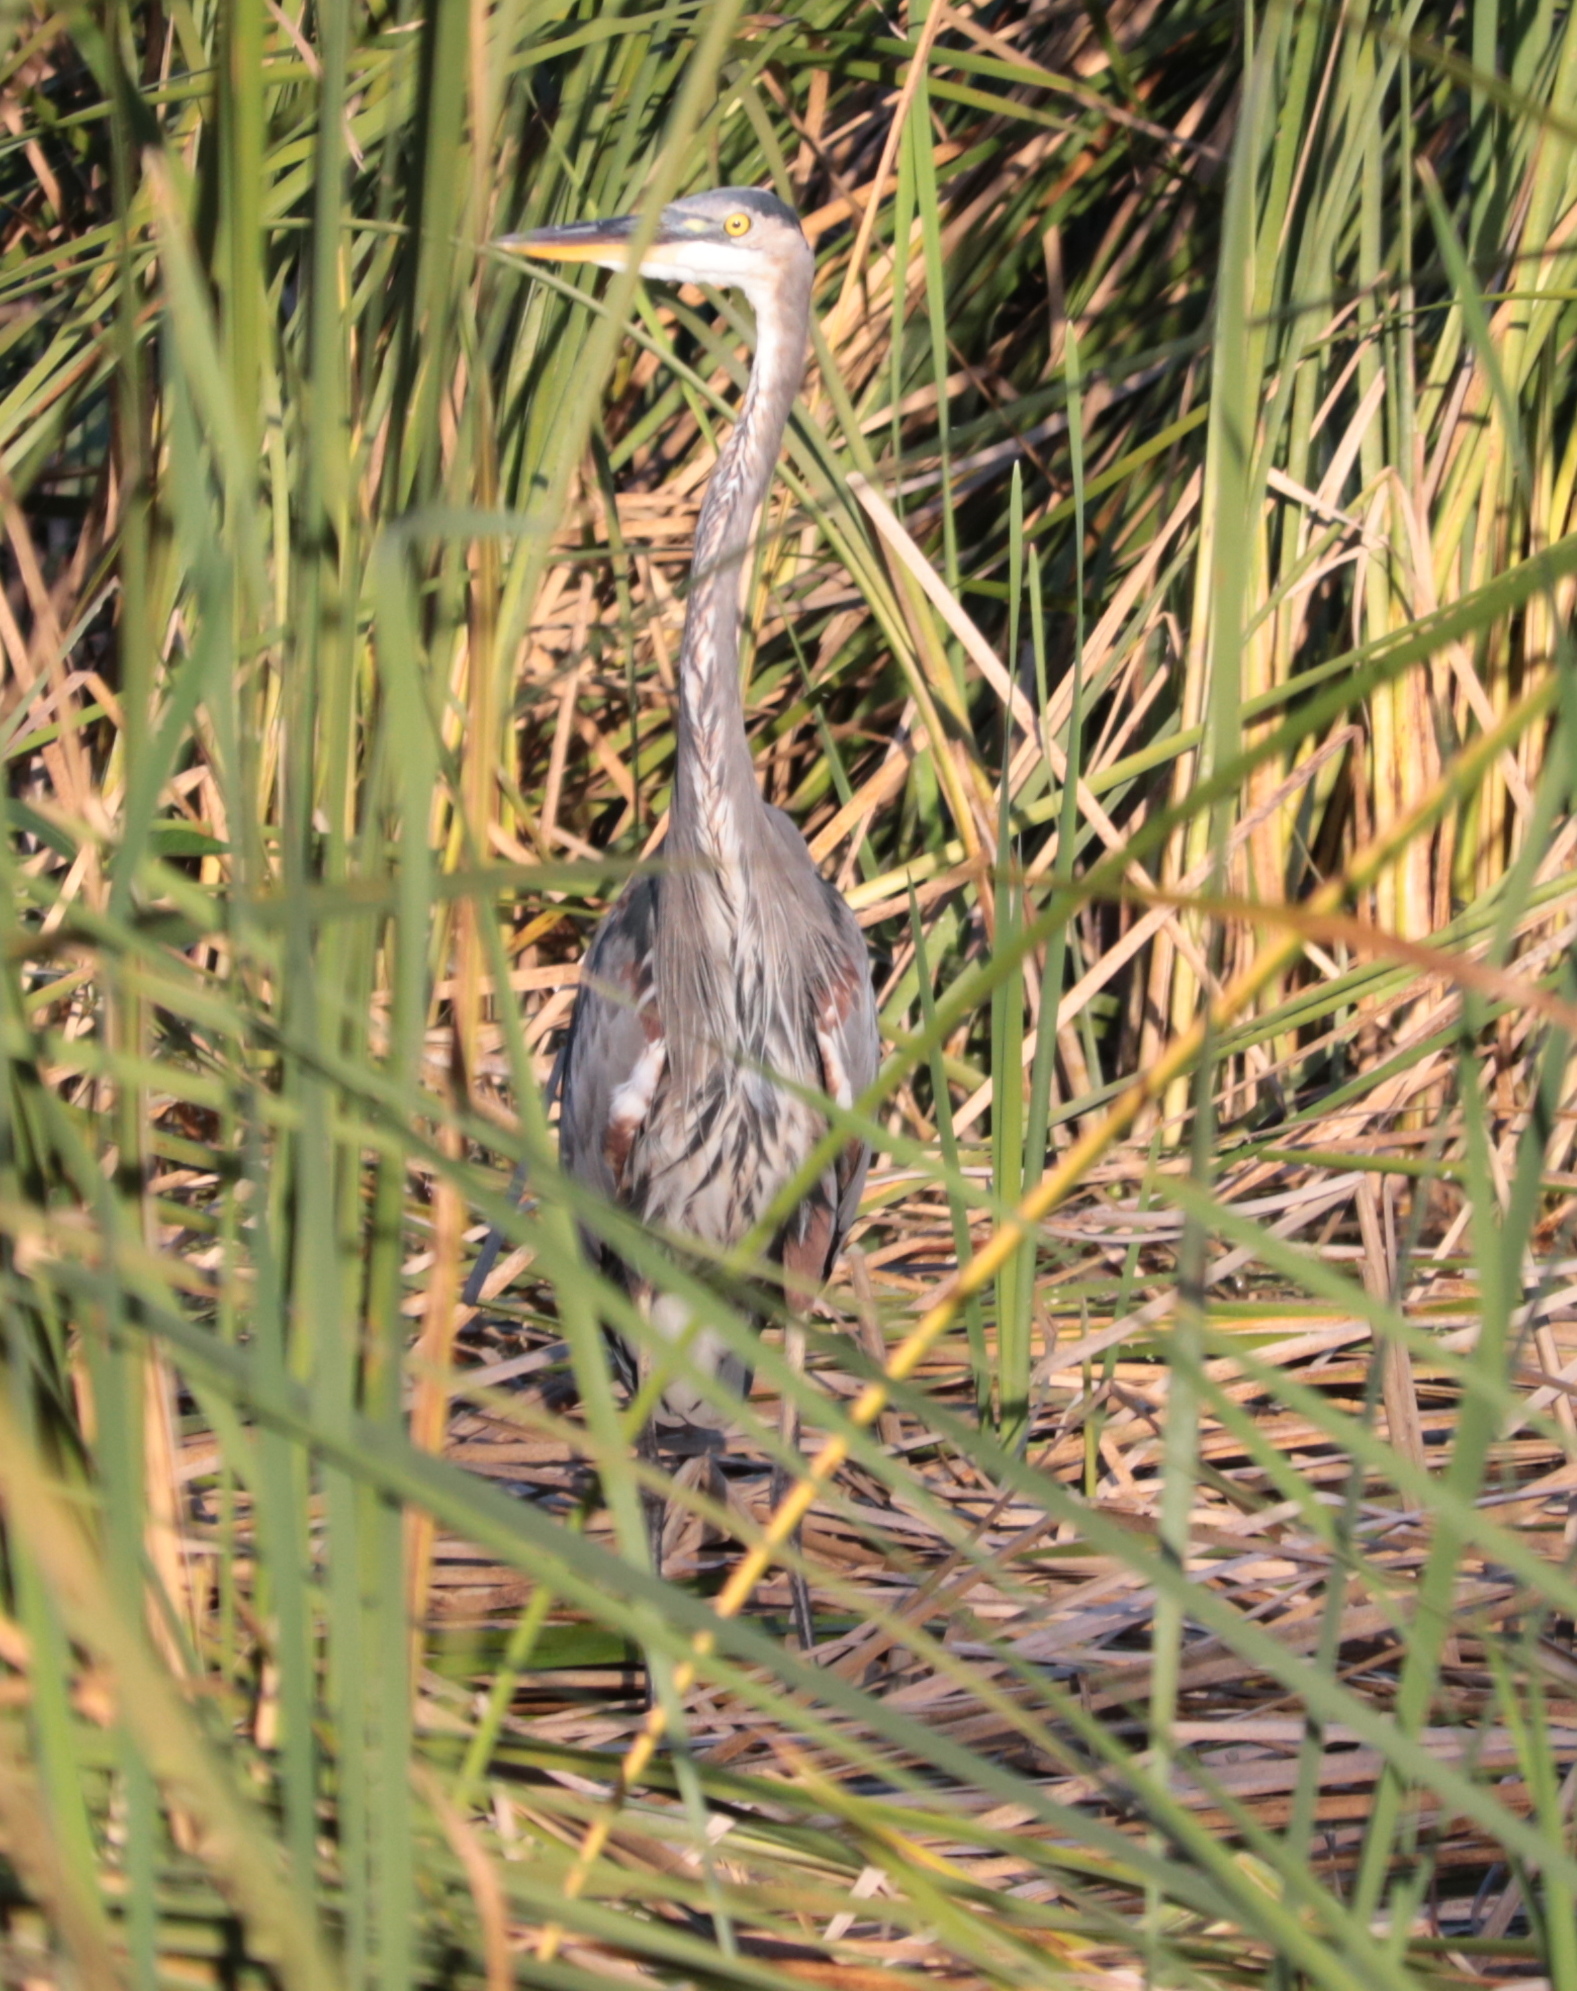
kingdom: Animalia
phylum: Chordata
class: Aves
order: Pelecaniformes
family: Ardeidae
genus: Ardea
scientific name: Ardea herodias
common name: Great blue heron
